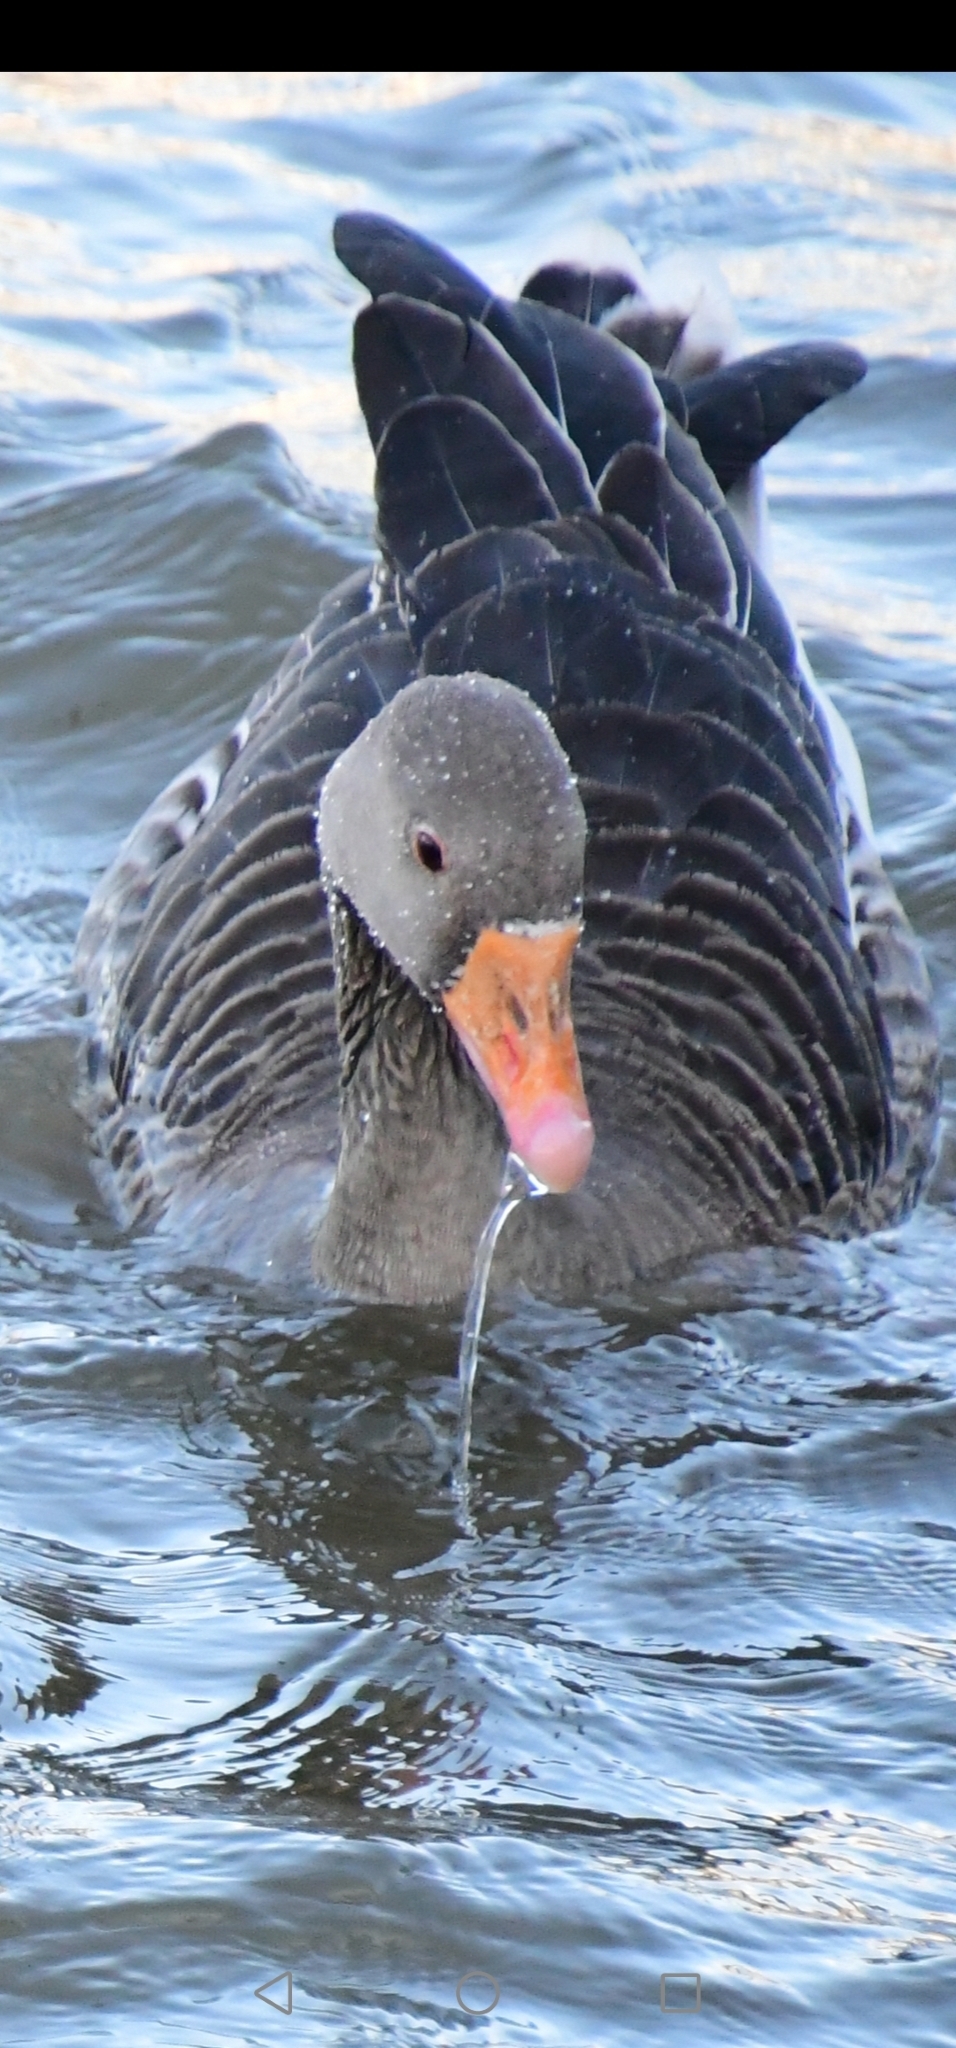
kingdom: Animalia
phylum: Chordata
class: Aves
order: Anseriformes
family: Anatidae
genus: Anser
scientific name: Anser anser
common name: Greylag goose
